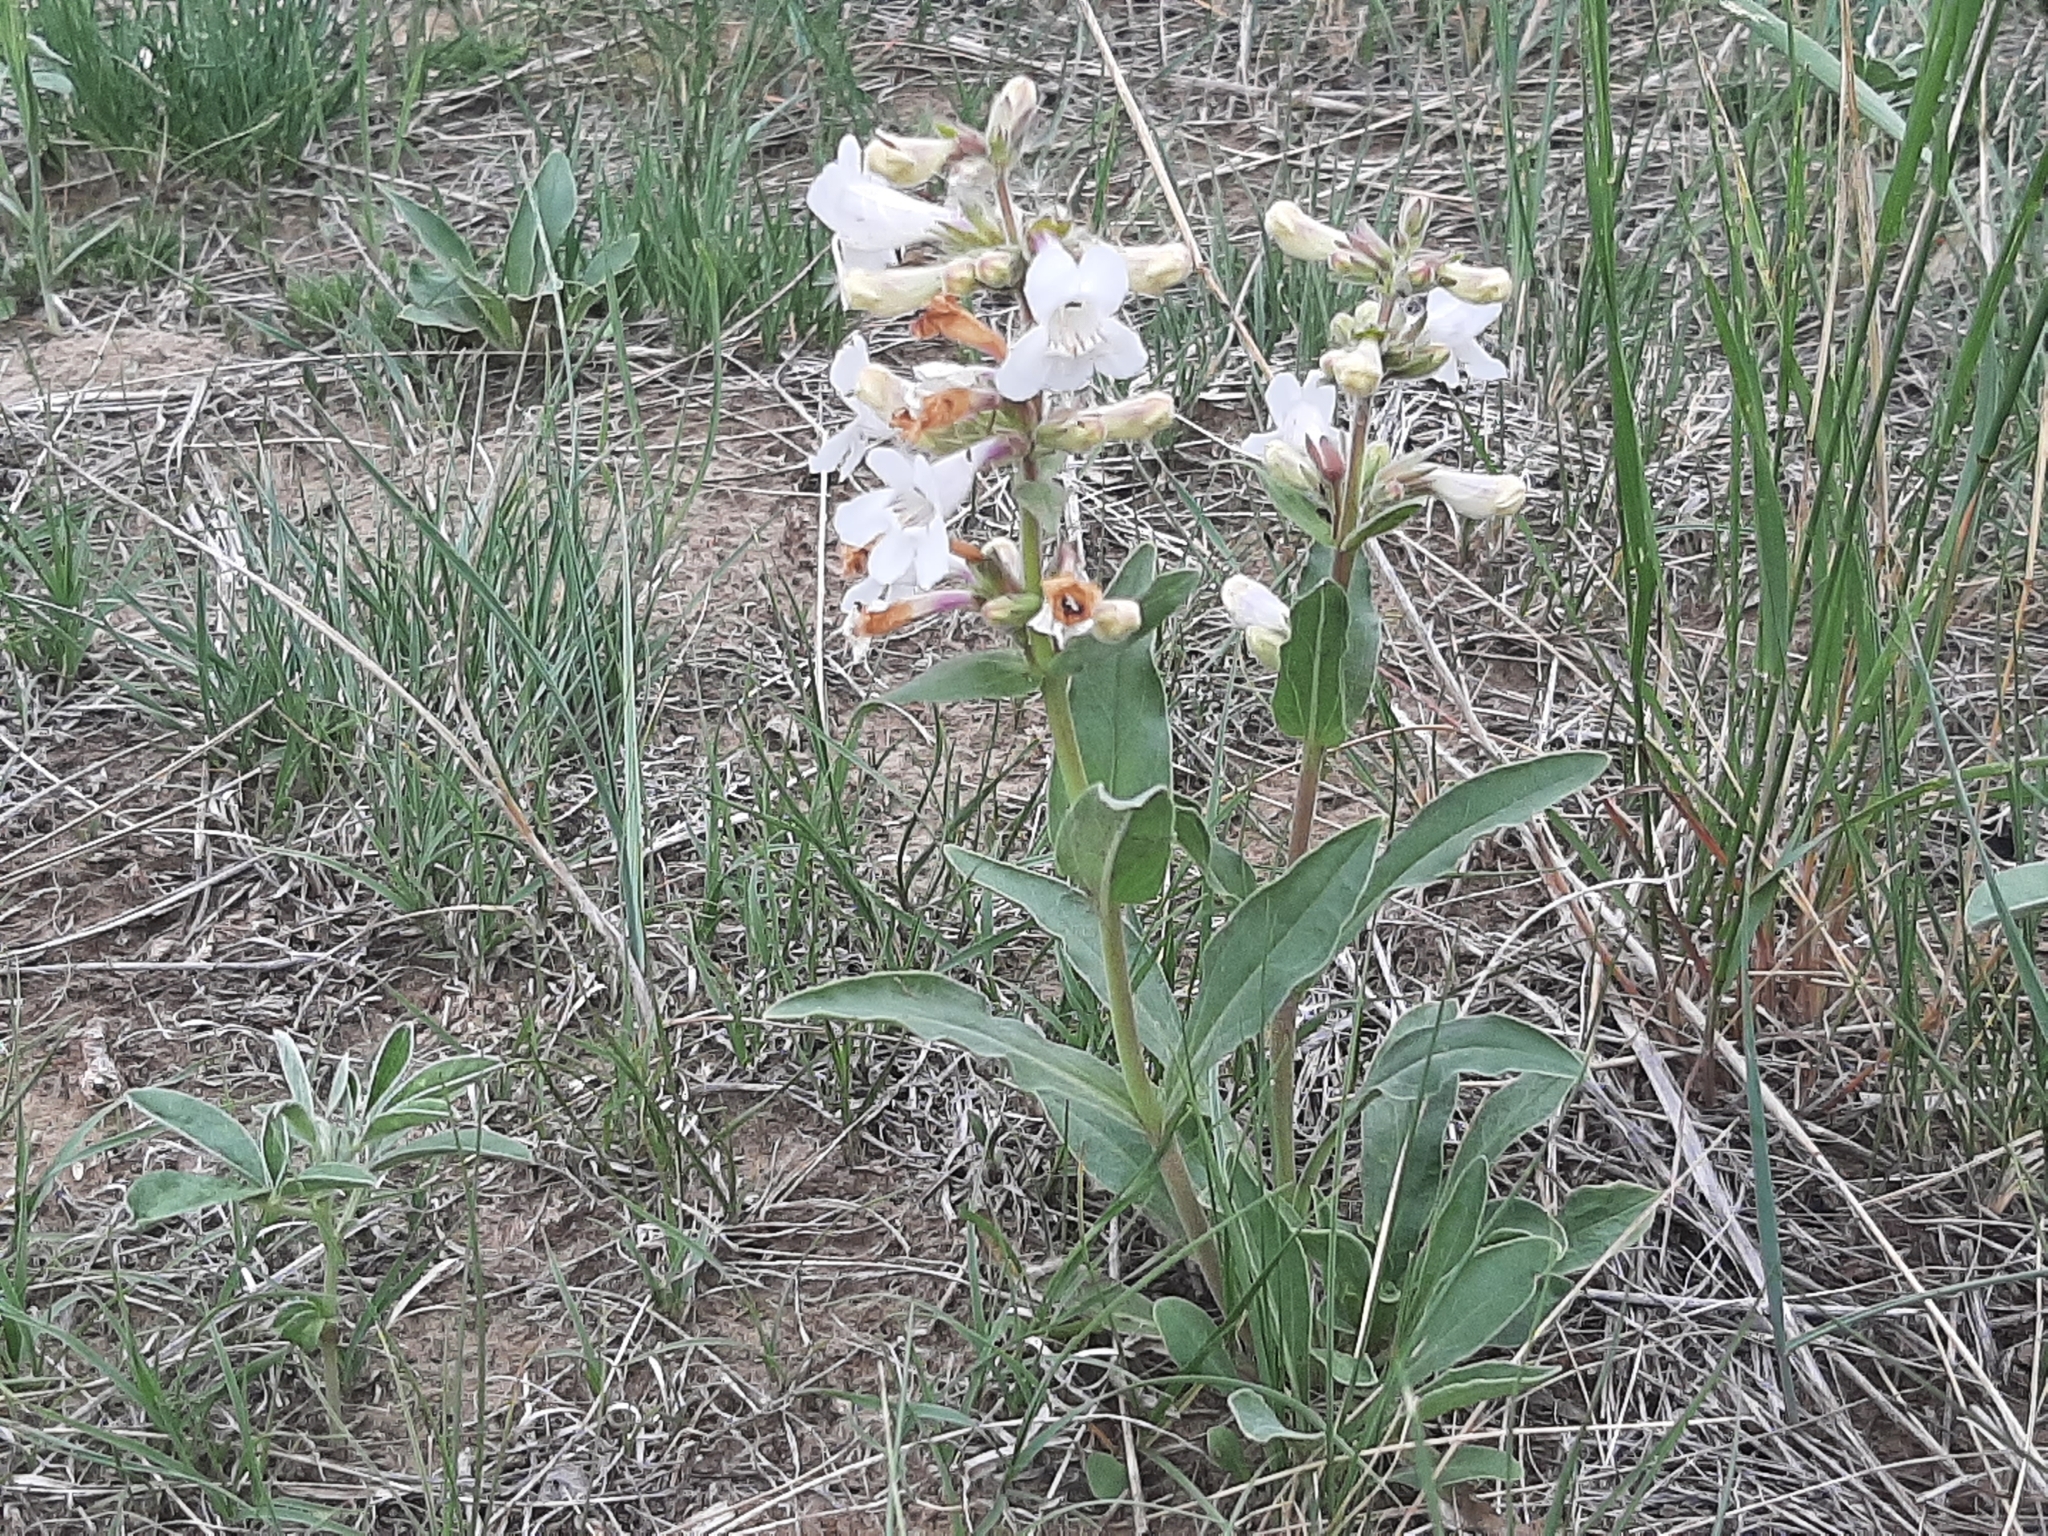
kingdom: Plantae
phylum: Tracheophyta
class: Magnoliopsida
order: Lamiales
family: Plantaginaceae
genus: Penstemon
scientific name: Penstemon albidus
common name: White beardtongue
